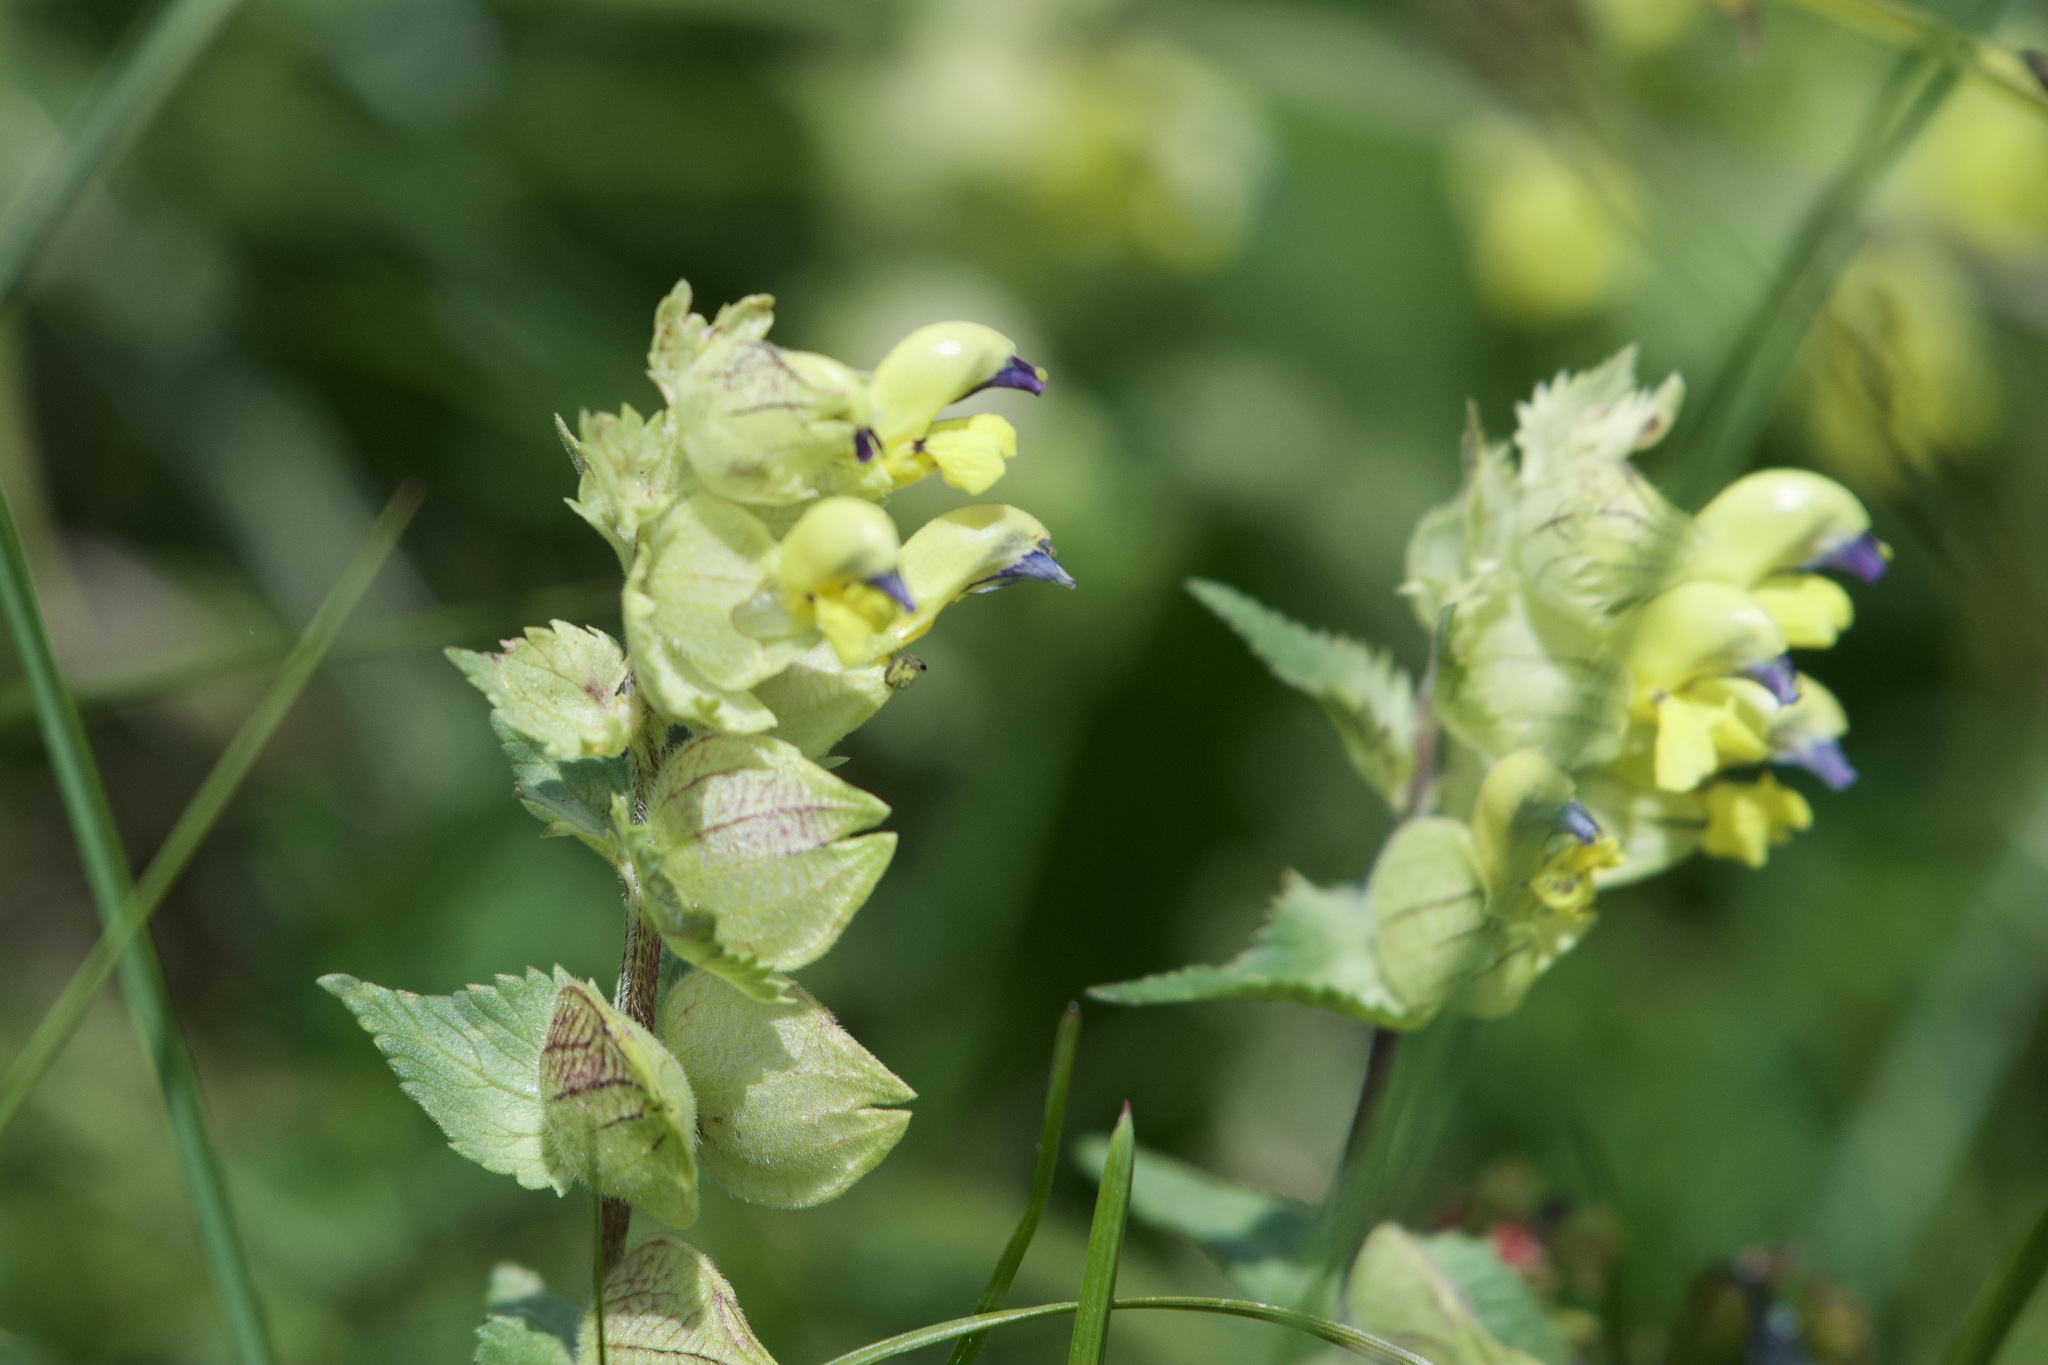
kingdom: Plantae
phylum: Tracheophyta
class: Magnoliopsida
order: Lamiales
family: Orobanchaceae
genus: Rhinanthus
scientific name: Rhinanthus freynii
